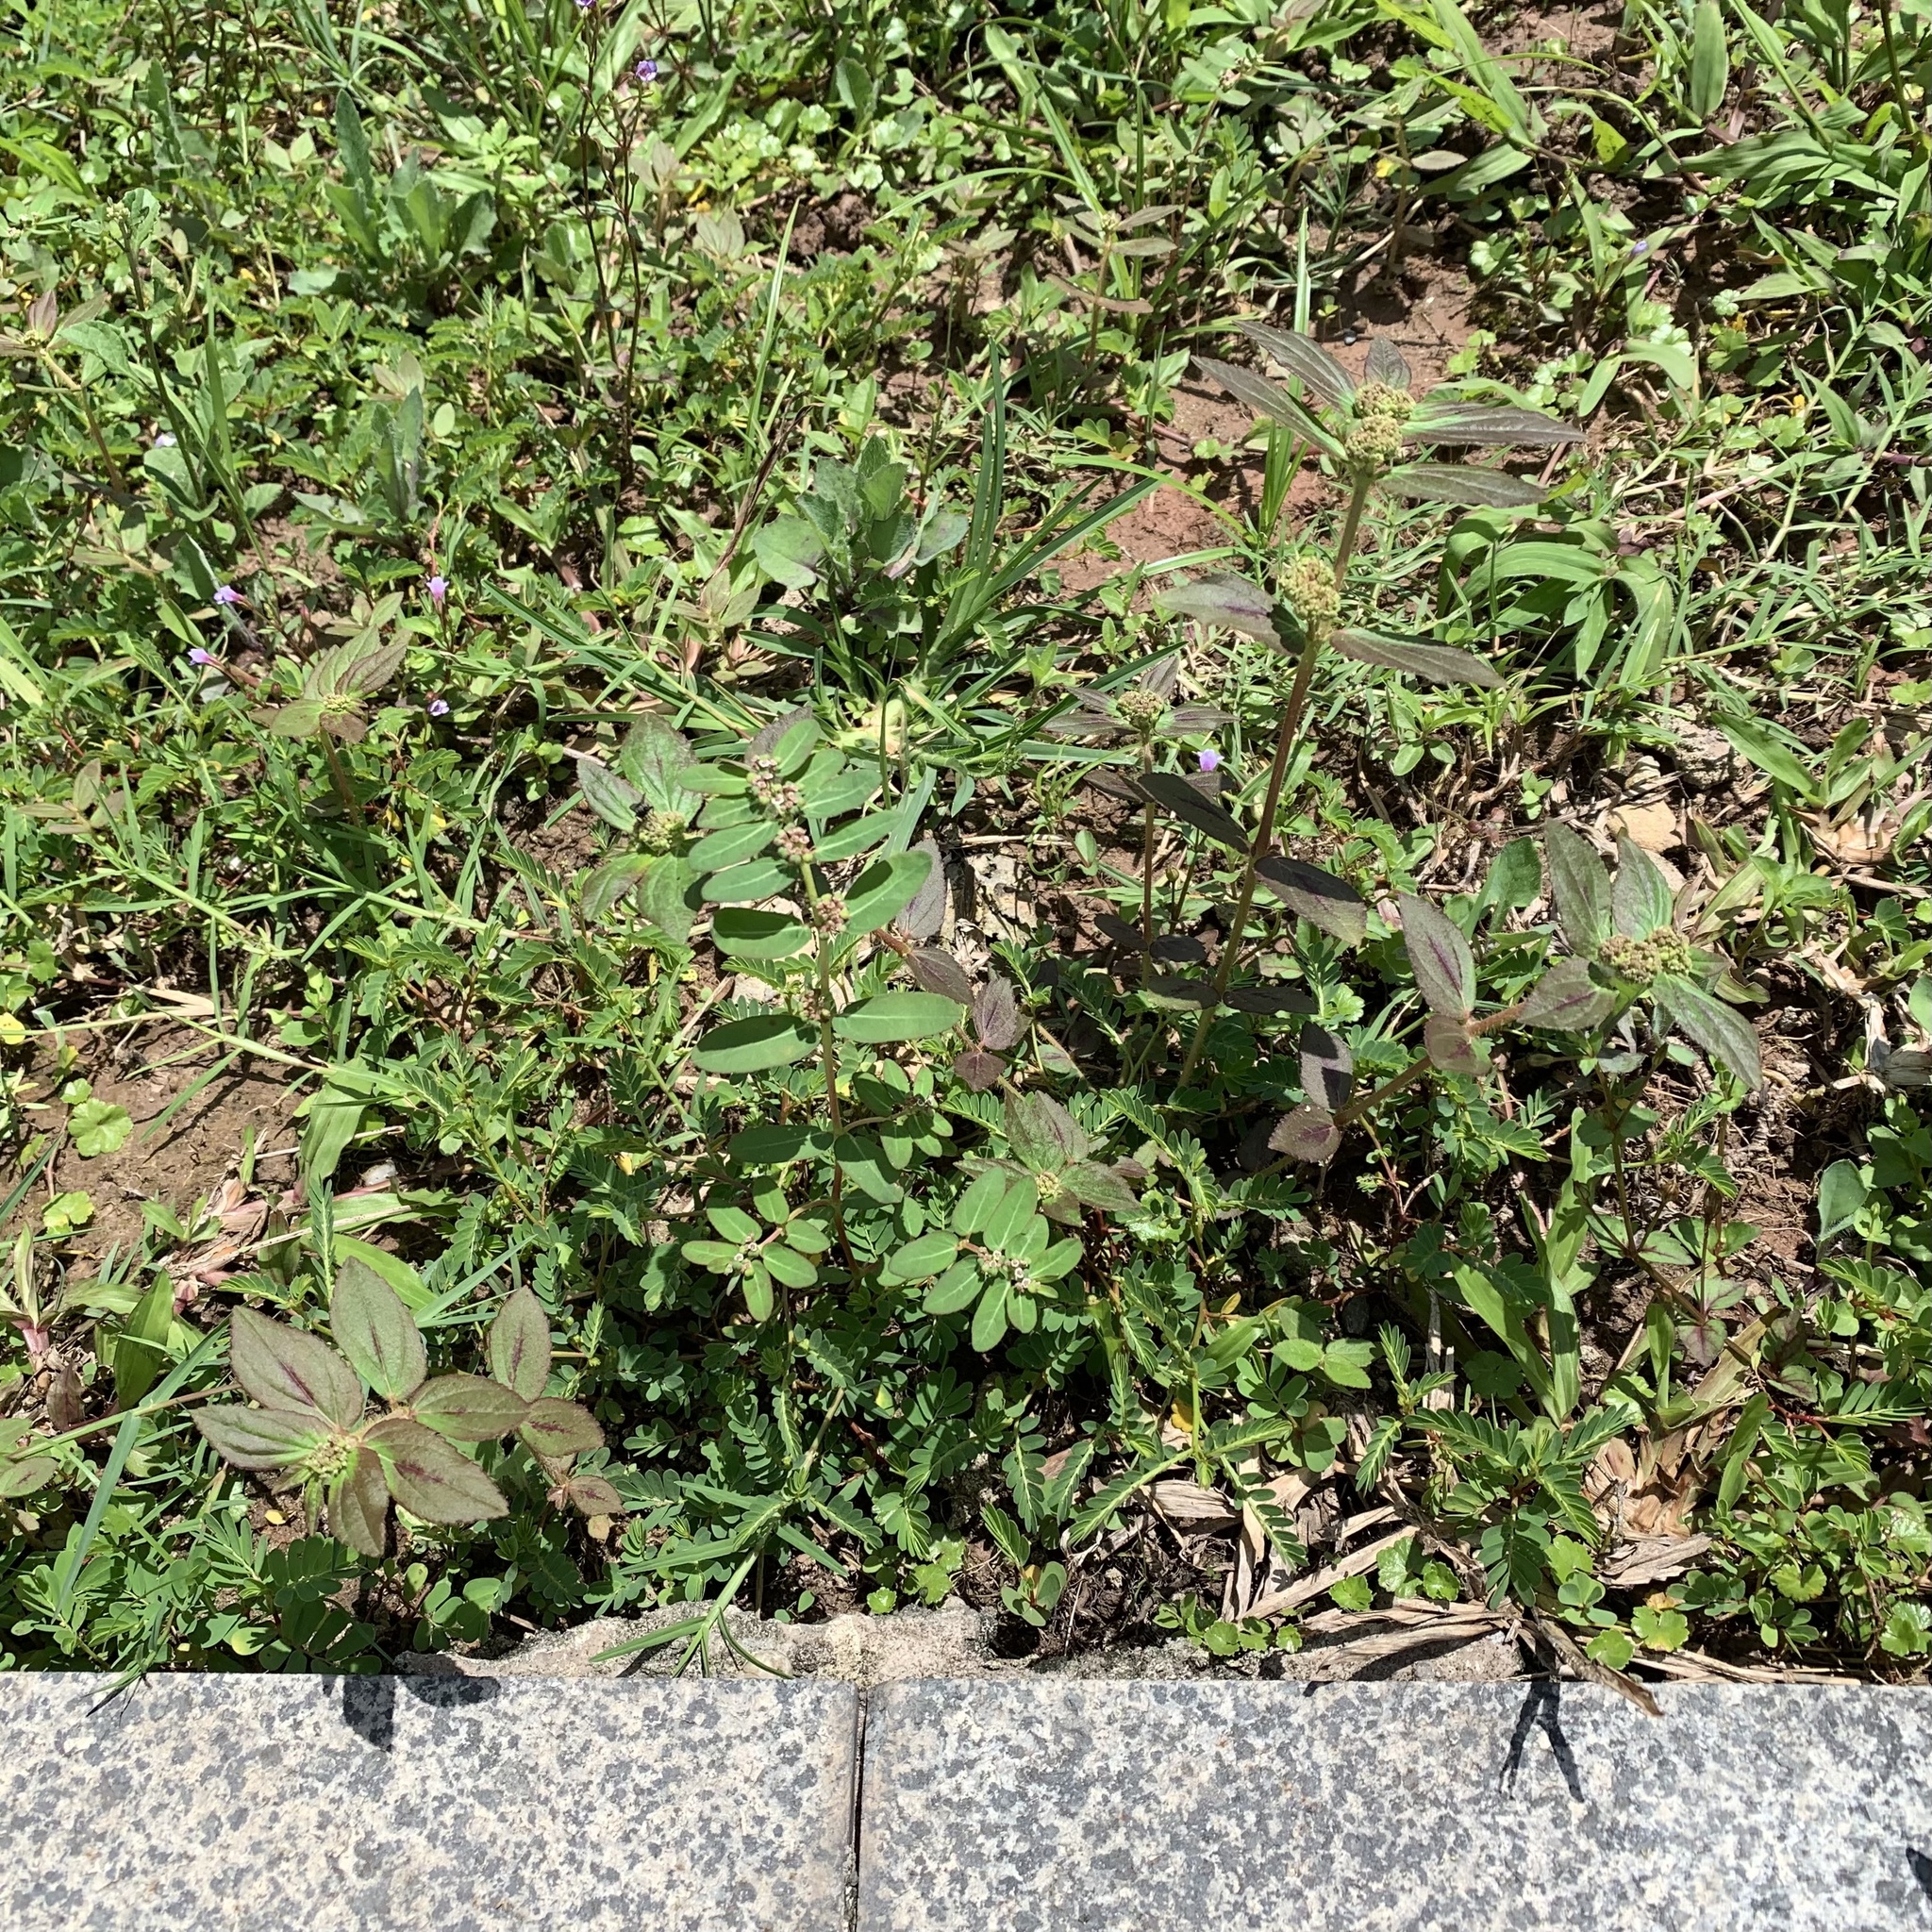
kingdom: Plantae
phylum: Tracheophyta
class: Magnoliopsida
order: Malpighiales
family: Euphorbiaceae
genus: Euphorbia
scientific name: Euphorbia hirta
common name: Pillpod sandmat
